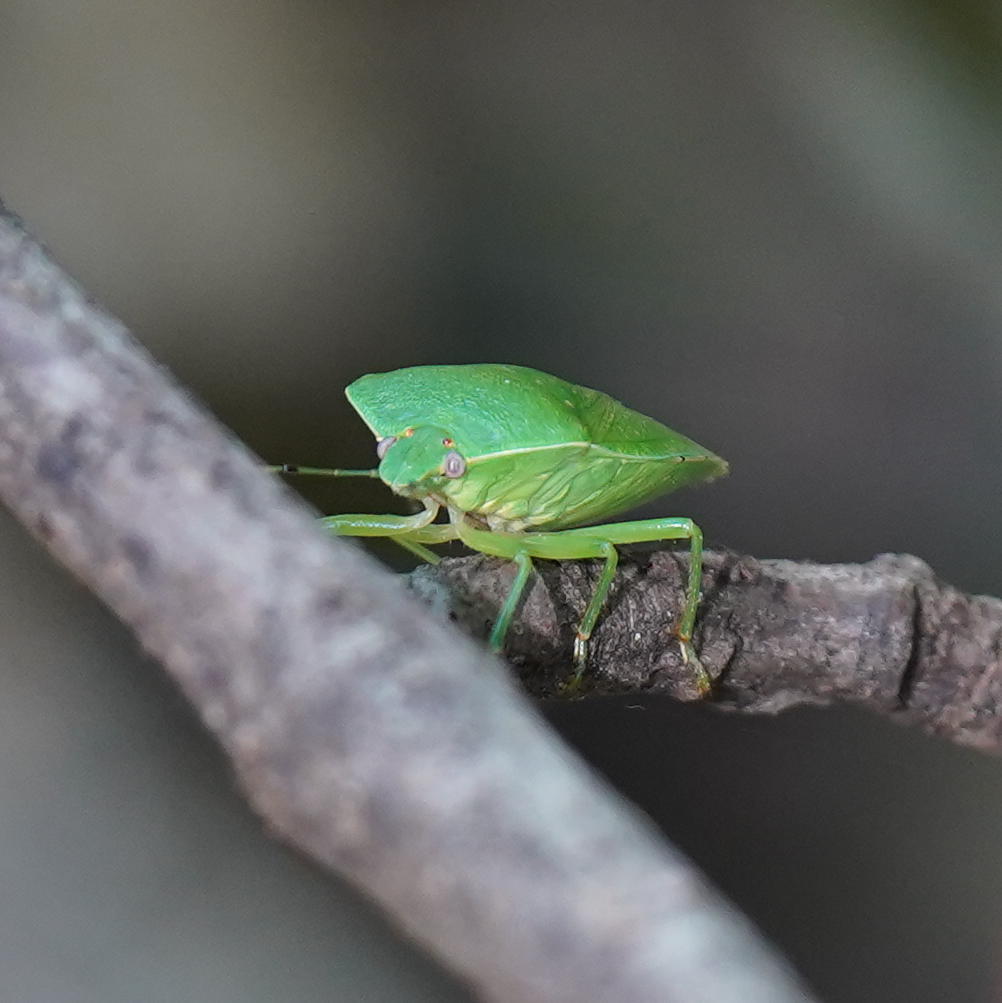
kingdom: Animalia
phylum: Arthropoda
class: Insecta
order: Hemiptera
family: Pentatomidae
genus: Chinavia
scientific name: Chinavia hilaris
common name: Green stink bug
